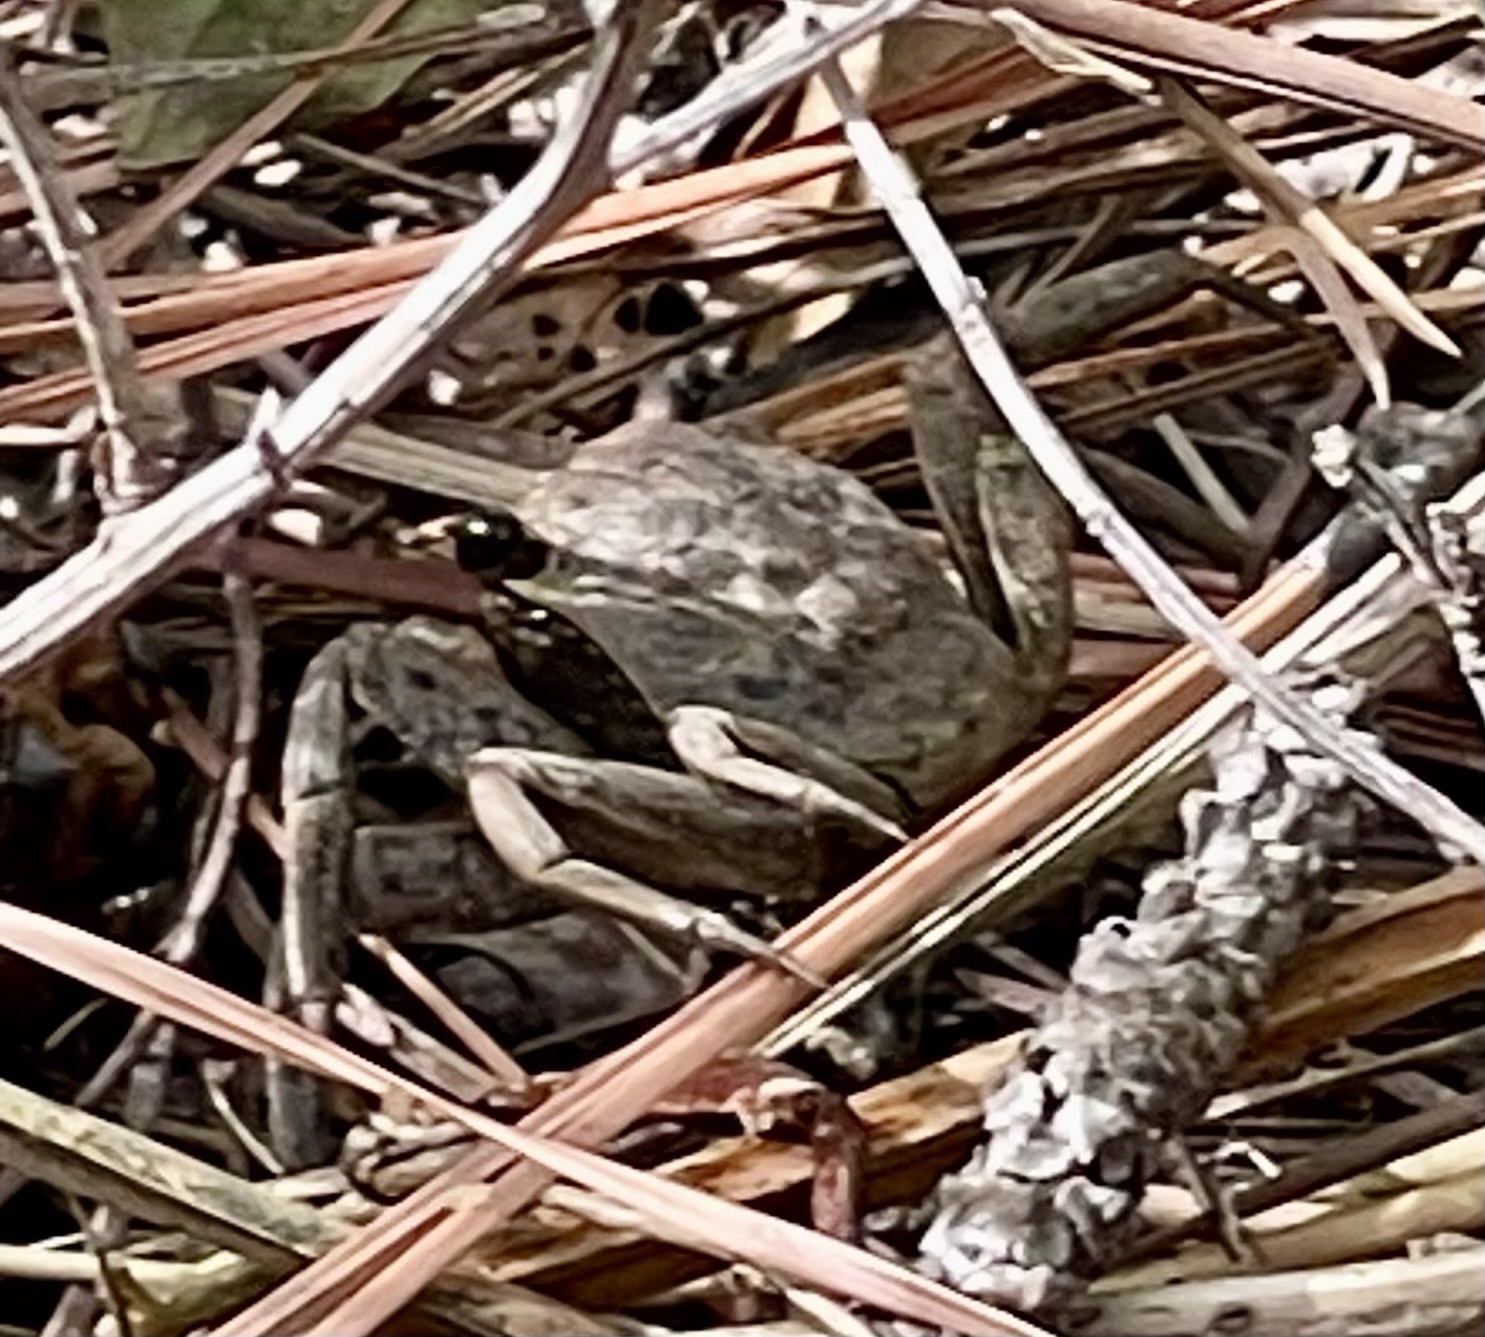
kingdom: Animalia
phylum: Arthropoda
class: Malacostraca
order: Decapoda
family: Sesarmidae
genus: Armases
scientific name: Armases cinereum
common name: Squareback marsh crab
